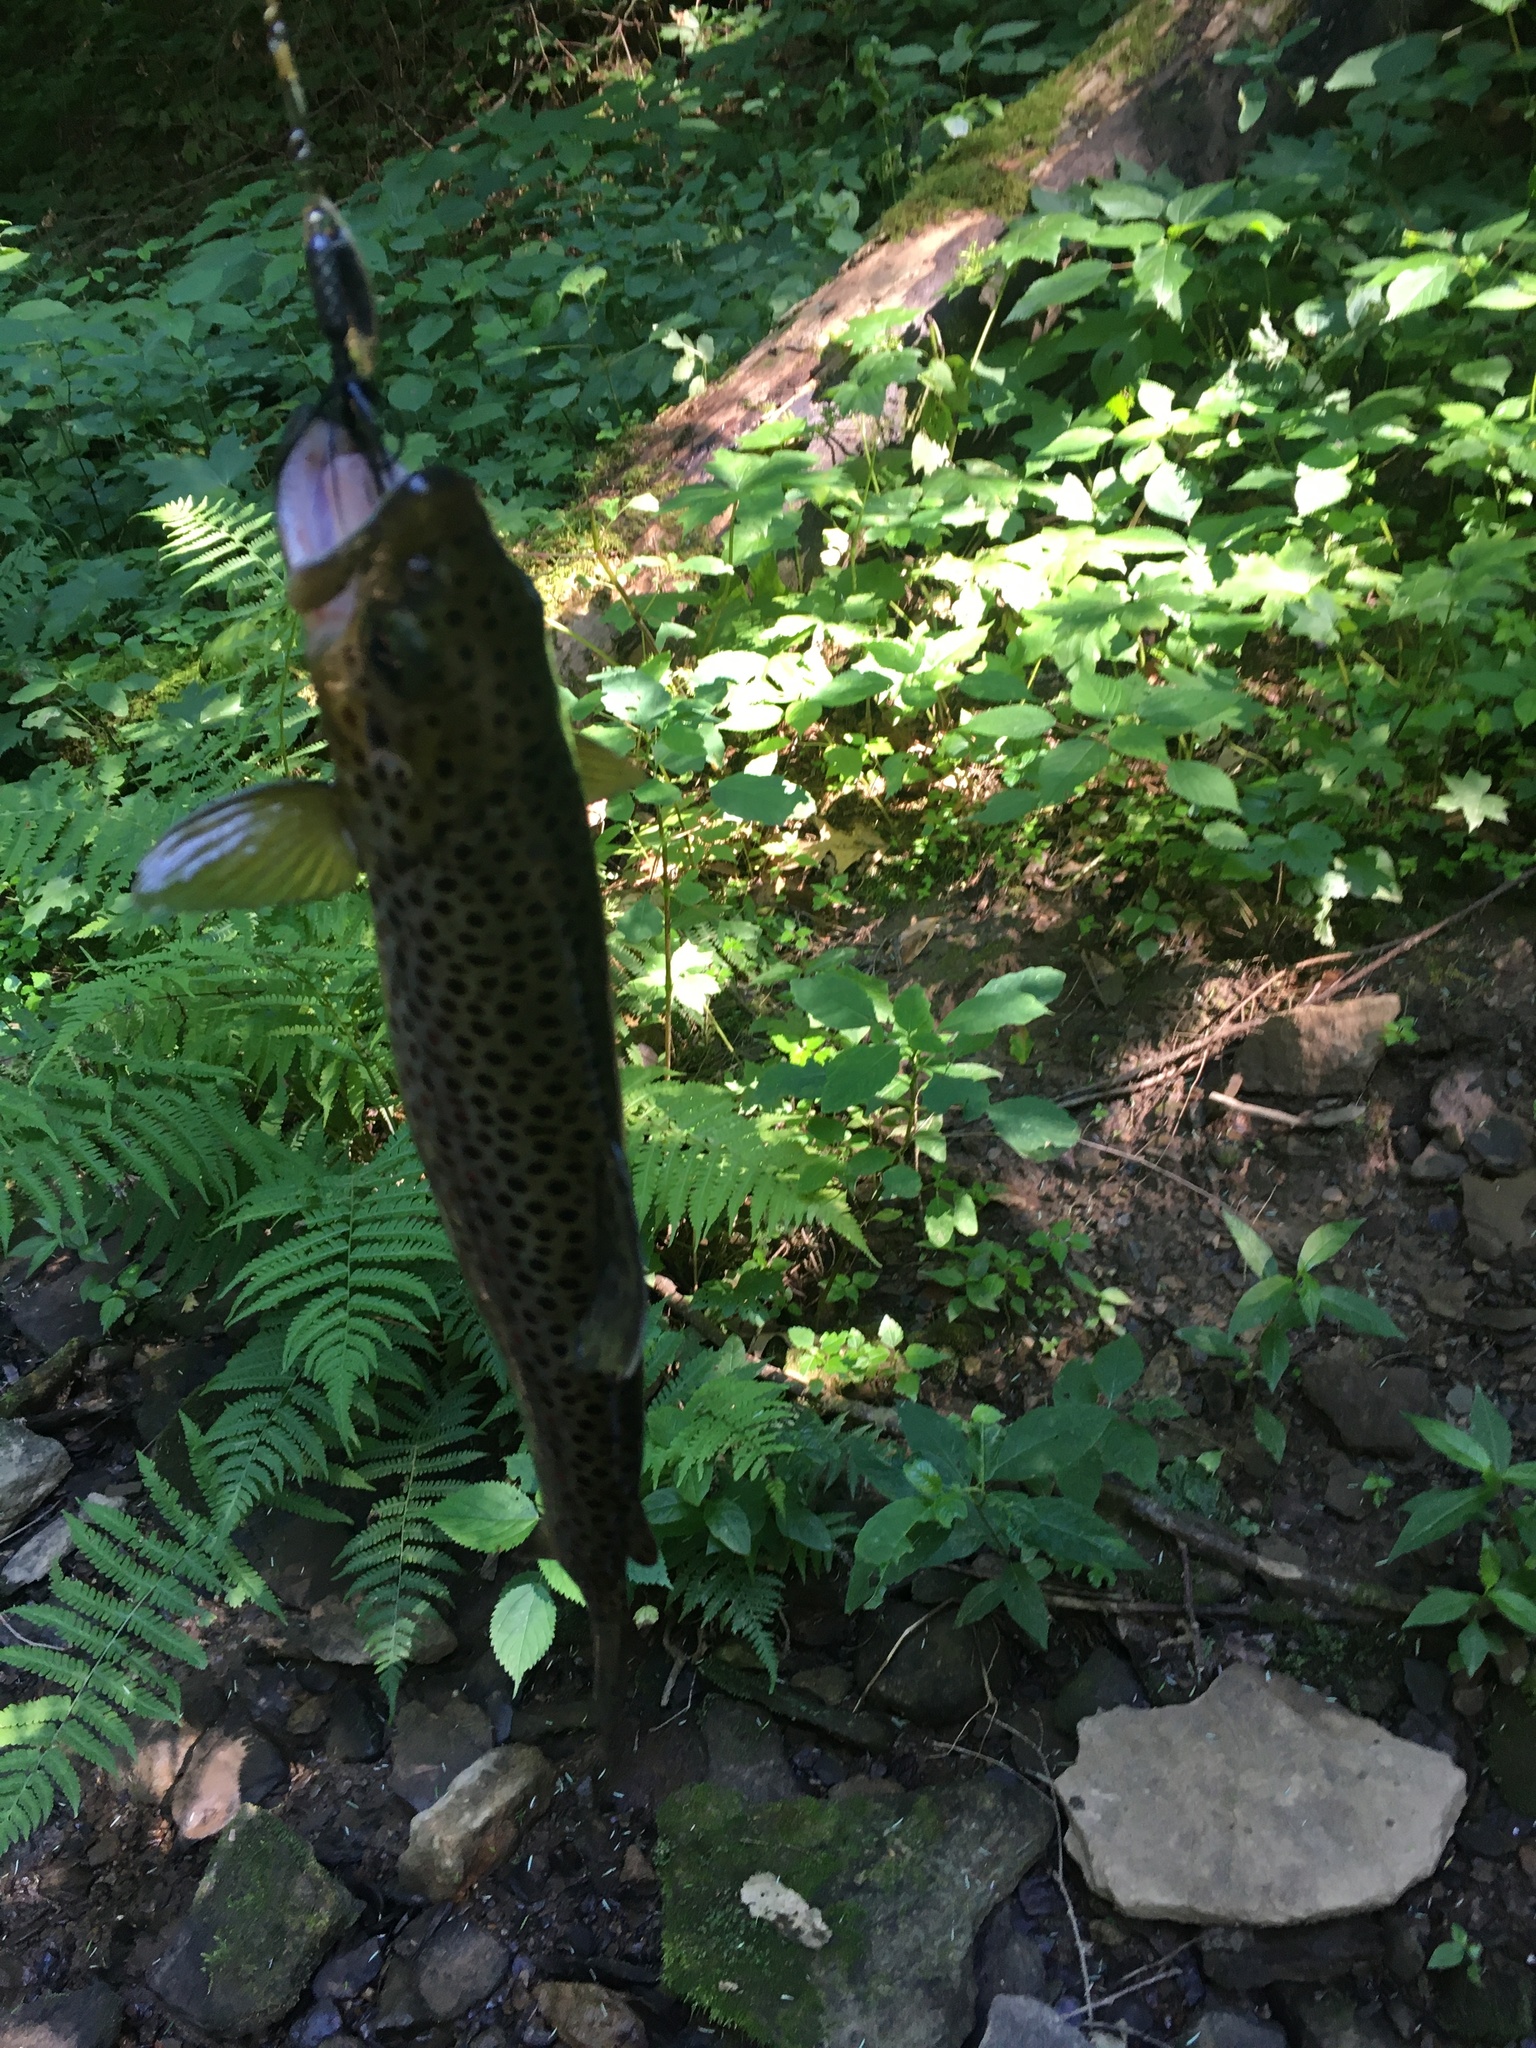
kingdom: Animalia
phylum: Chordata
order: Salmoniformes
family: Salmonidae
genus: Salmo
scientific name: Salmo trutta
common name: Brown trout
